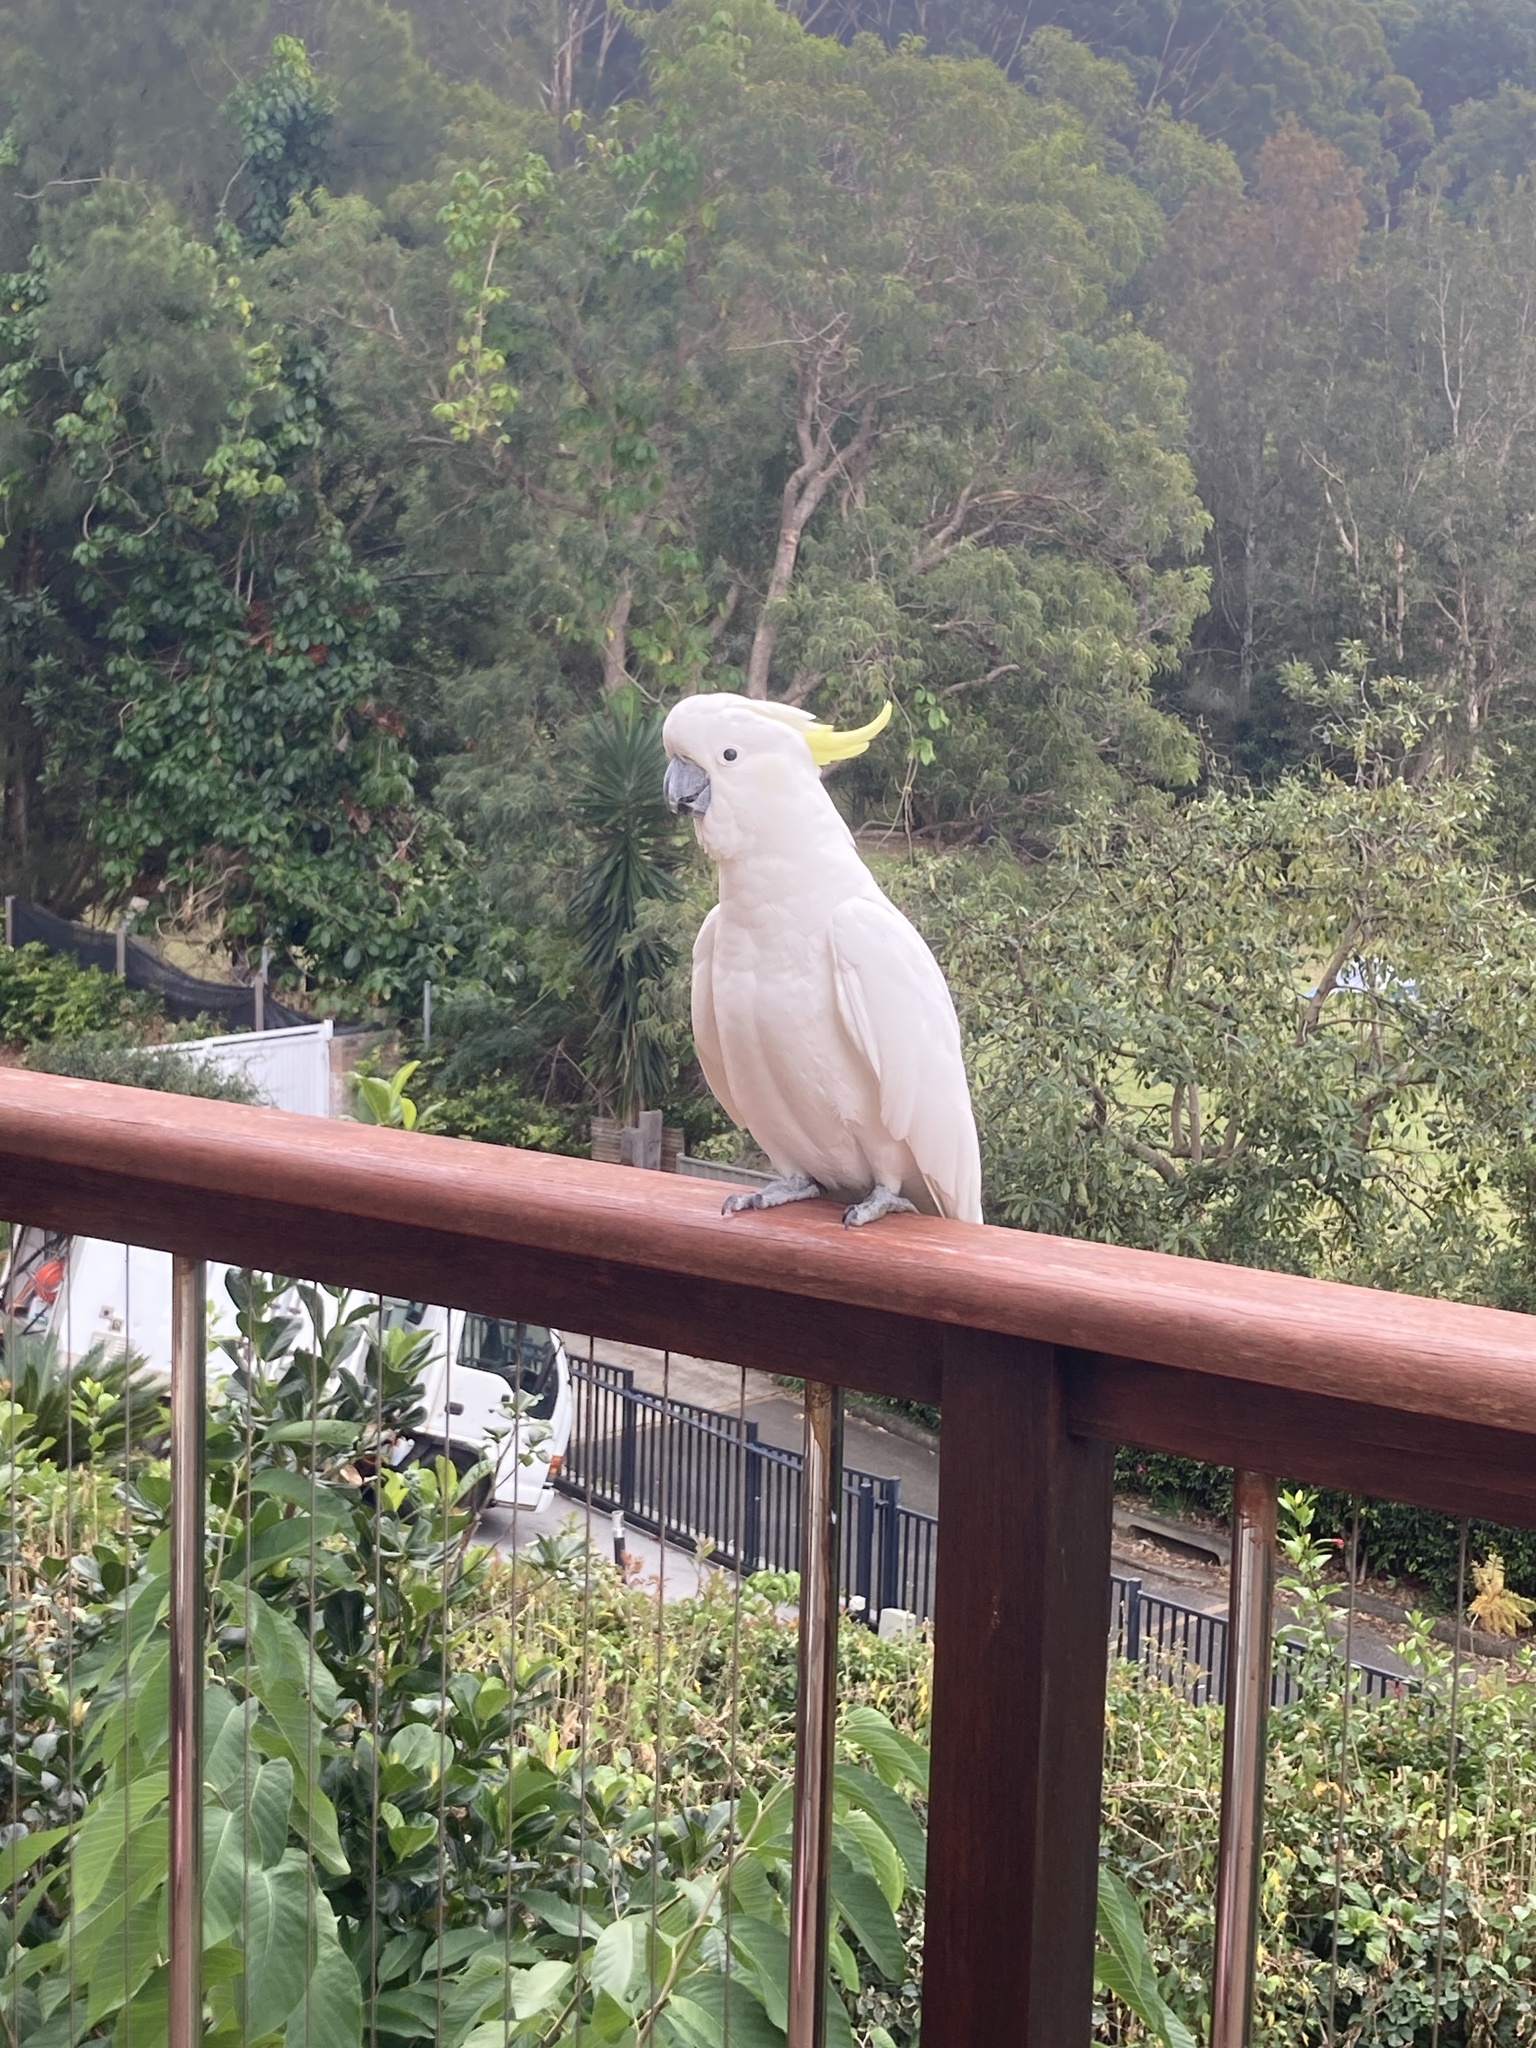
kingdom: Animalia
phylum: Chordata
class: Aves
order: Psittaciformes
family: Psittacidae
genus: Cacatua
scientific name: Cacatua galerita
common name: Sulphur-crested cockatoo
